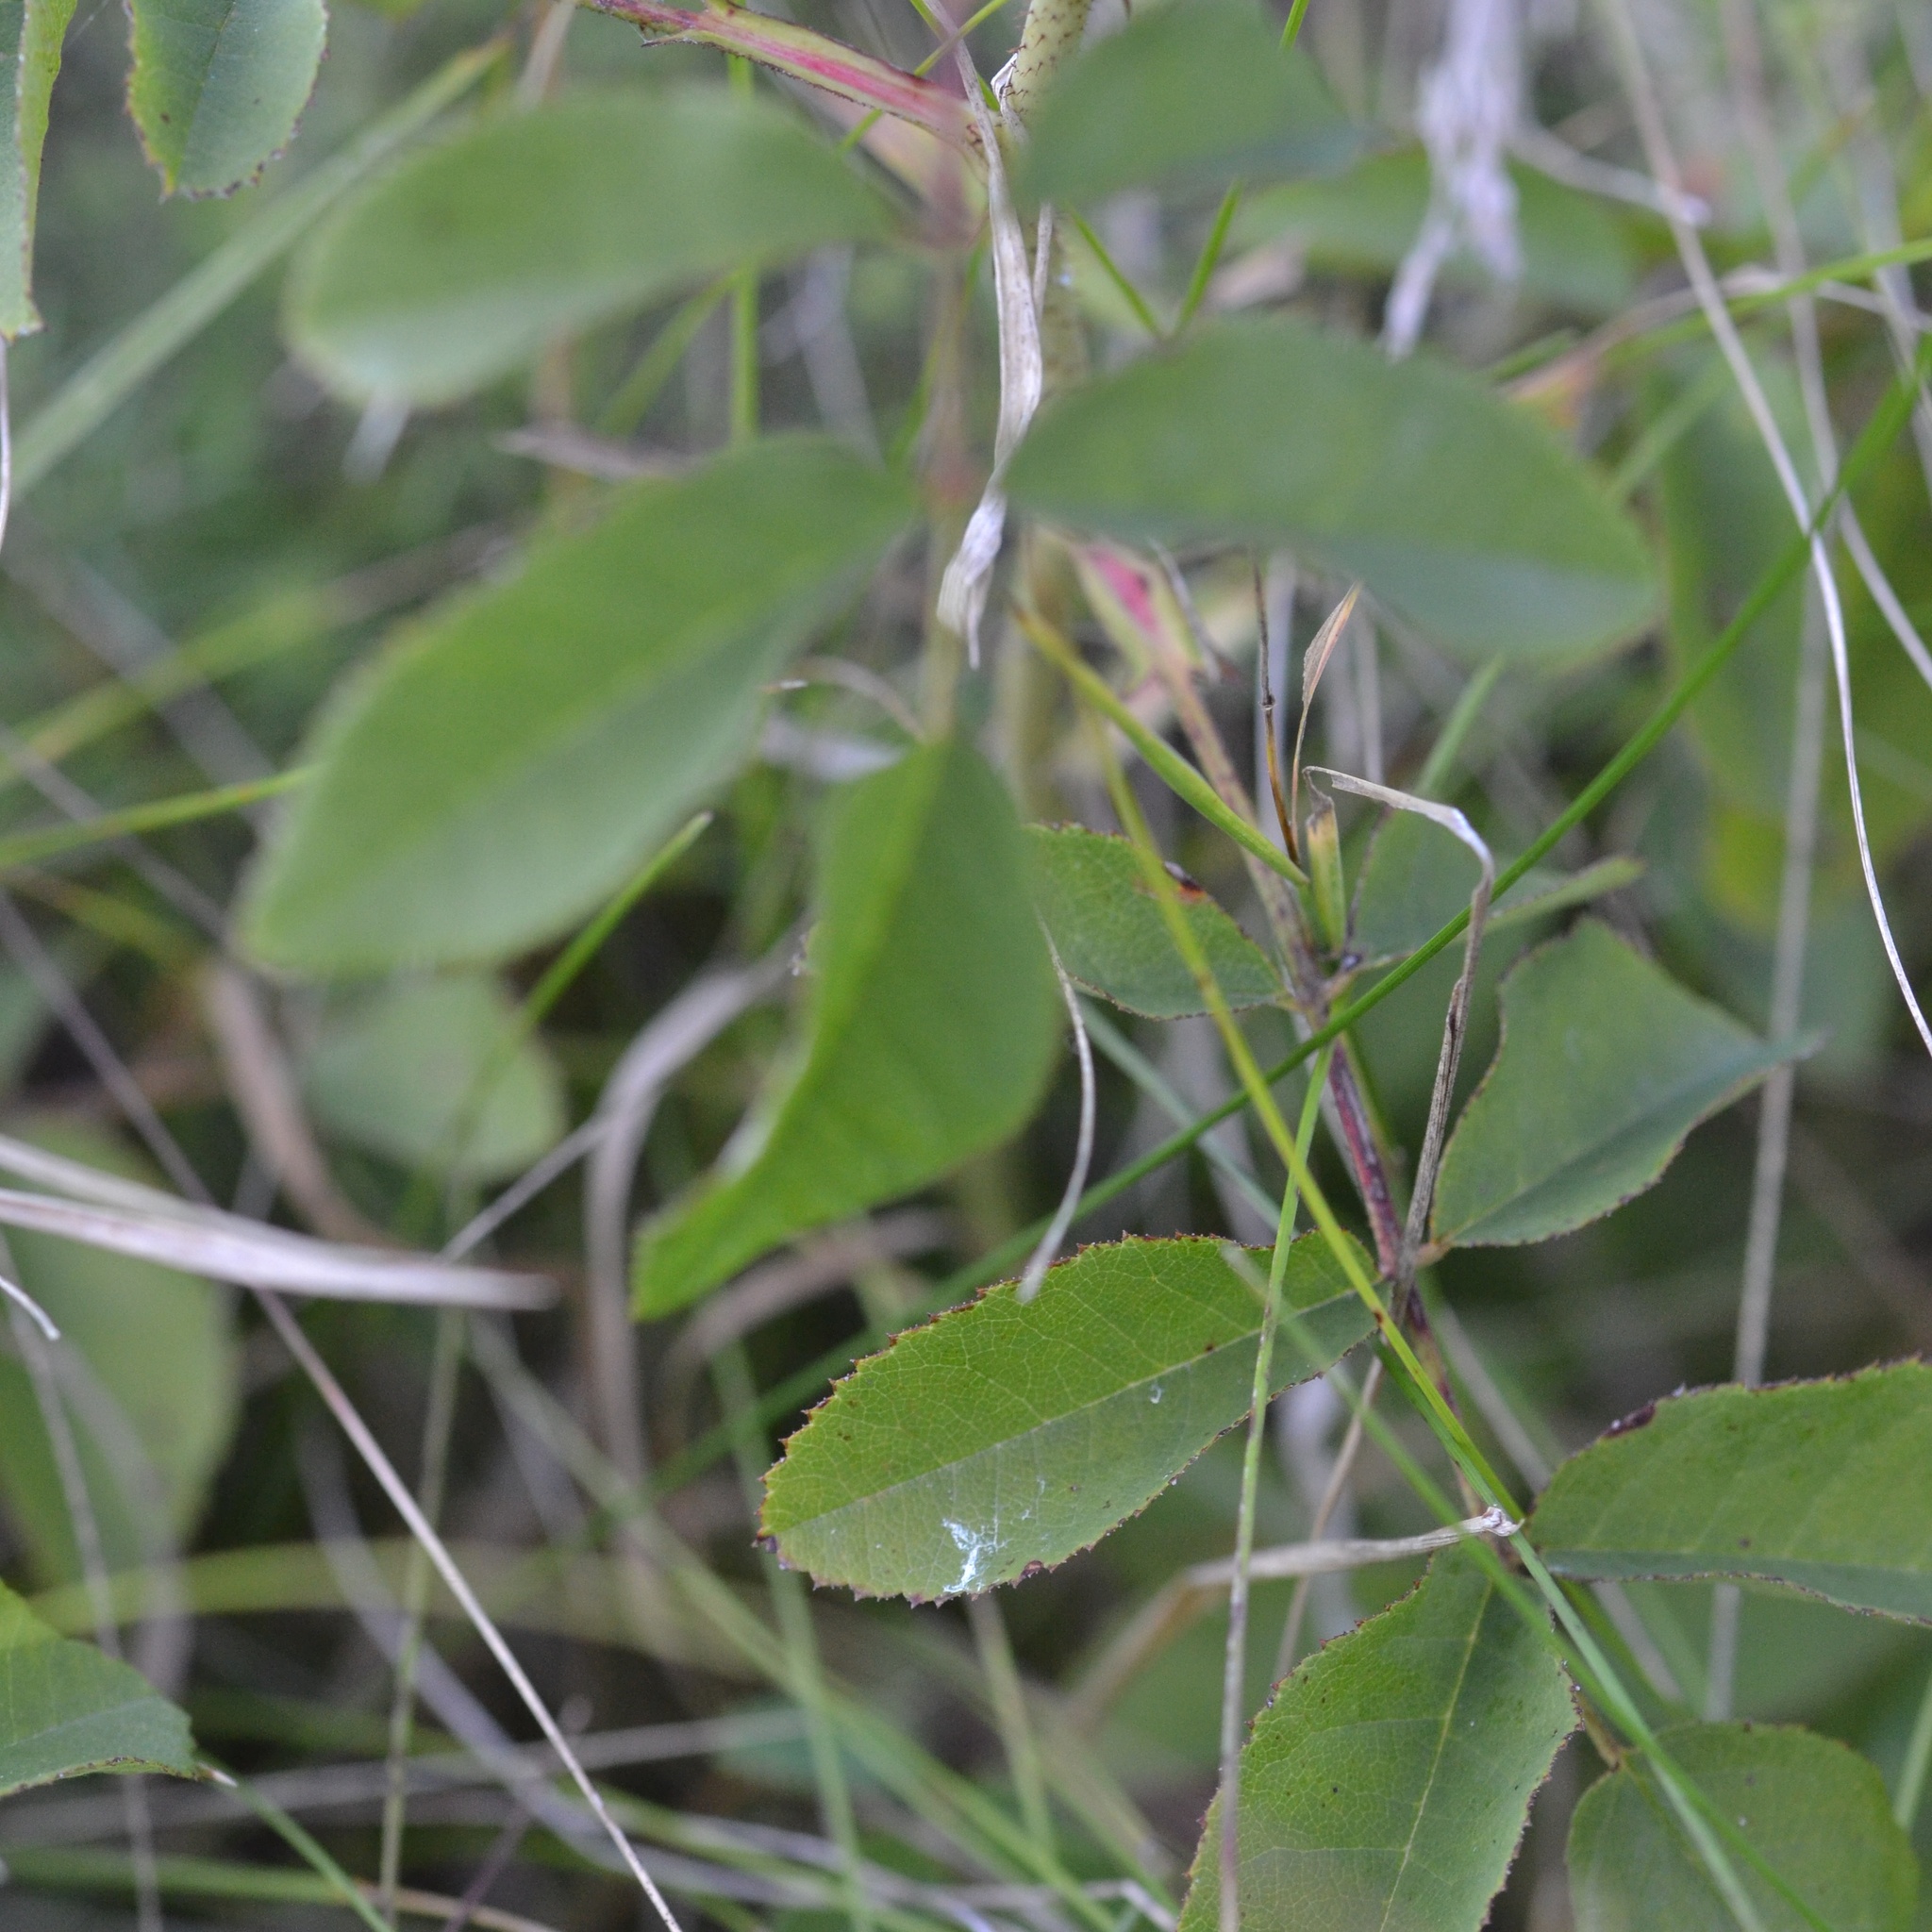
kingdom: Plantae
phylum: Tracheophyta
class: Magnoliopsida
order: Rosales
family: Rosaceae
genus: Rosa
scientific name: Rosa gallica
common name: French rose
